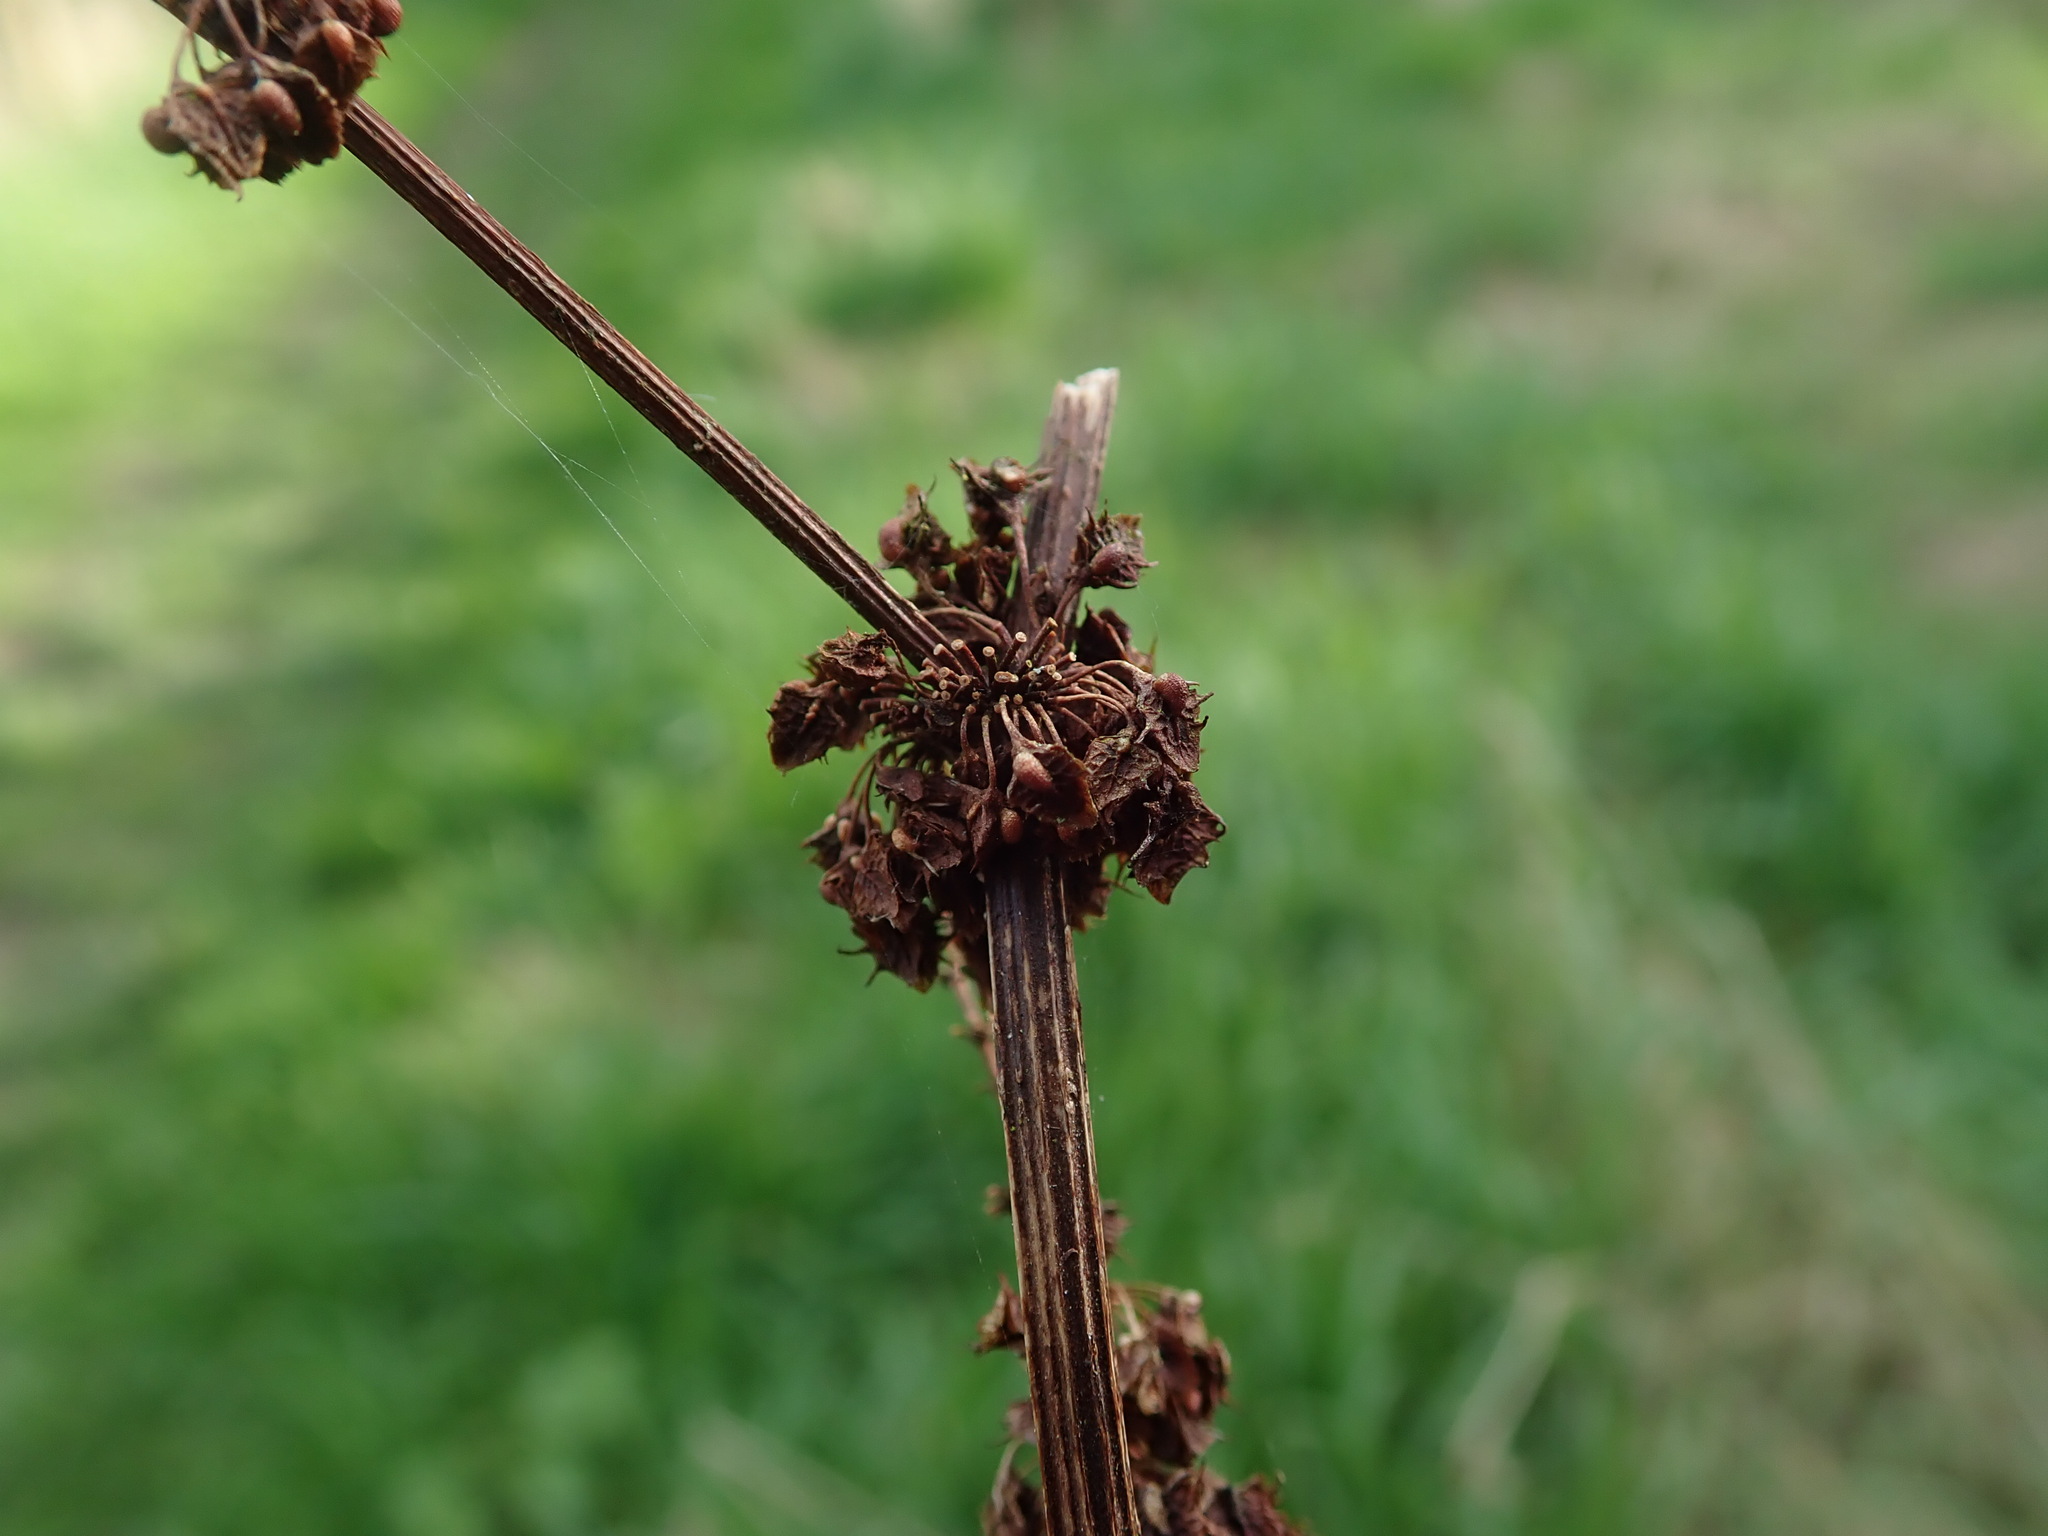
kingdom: Plantae
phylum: Tracheophyta
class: Magnoliopsida
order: Caryophyllales
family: Polygonaceae
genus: Rumex
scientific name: Rumex obtusifolius
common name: Bitter dock
